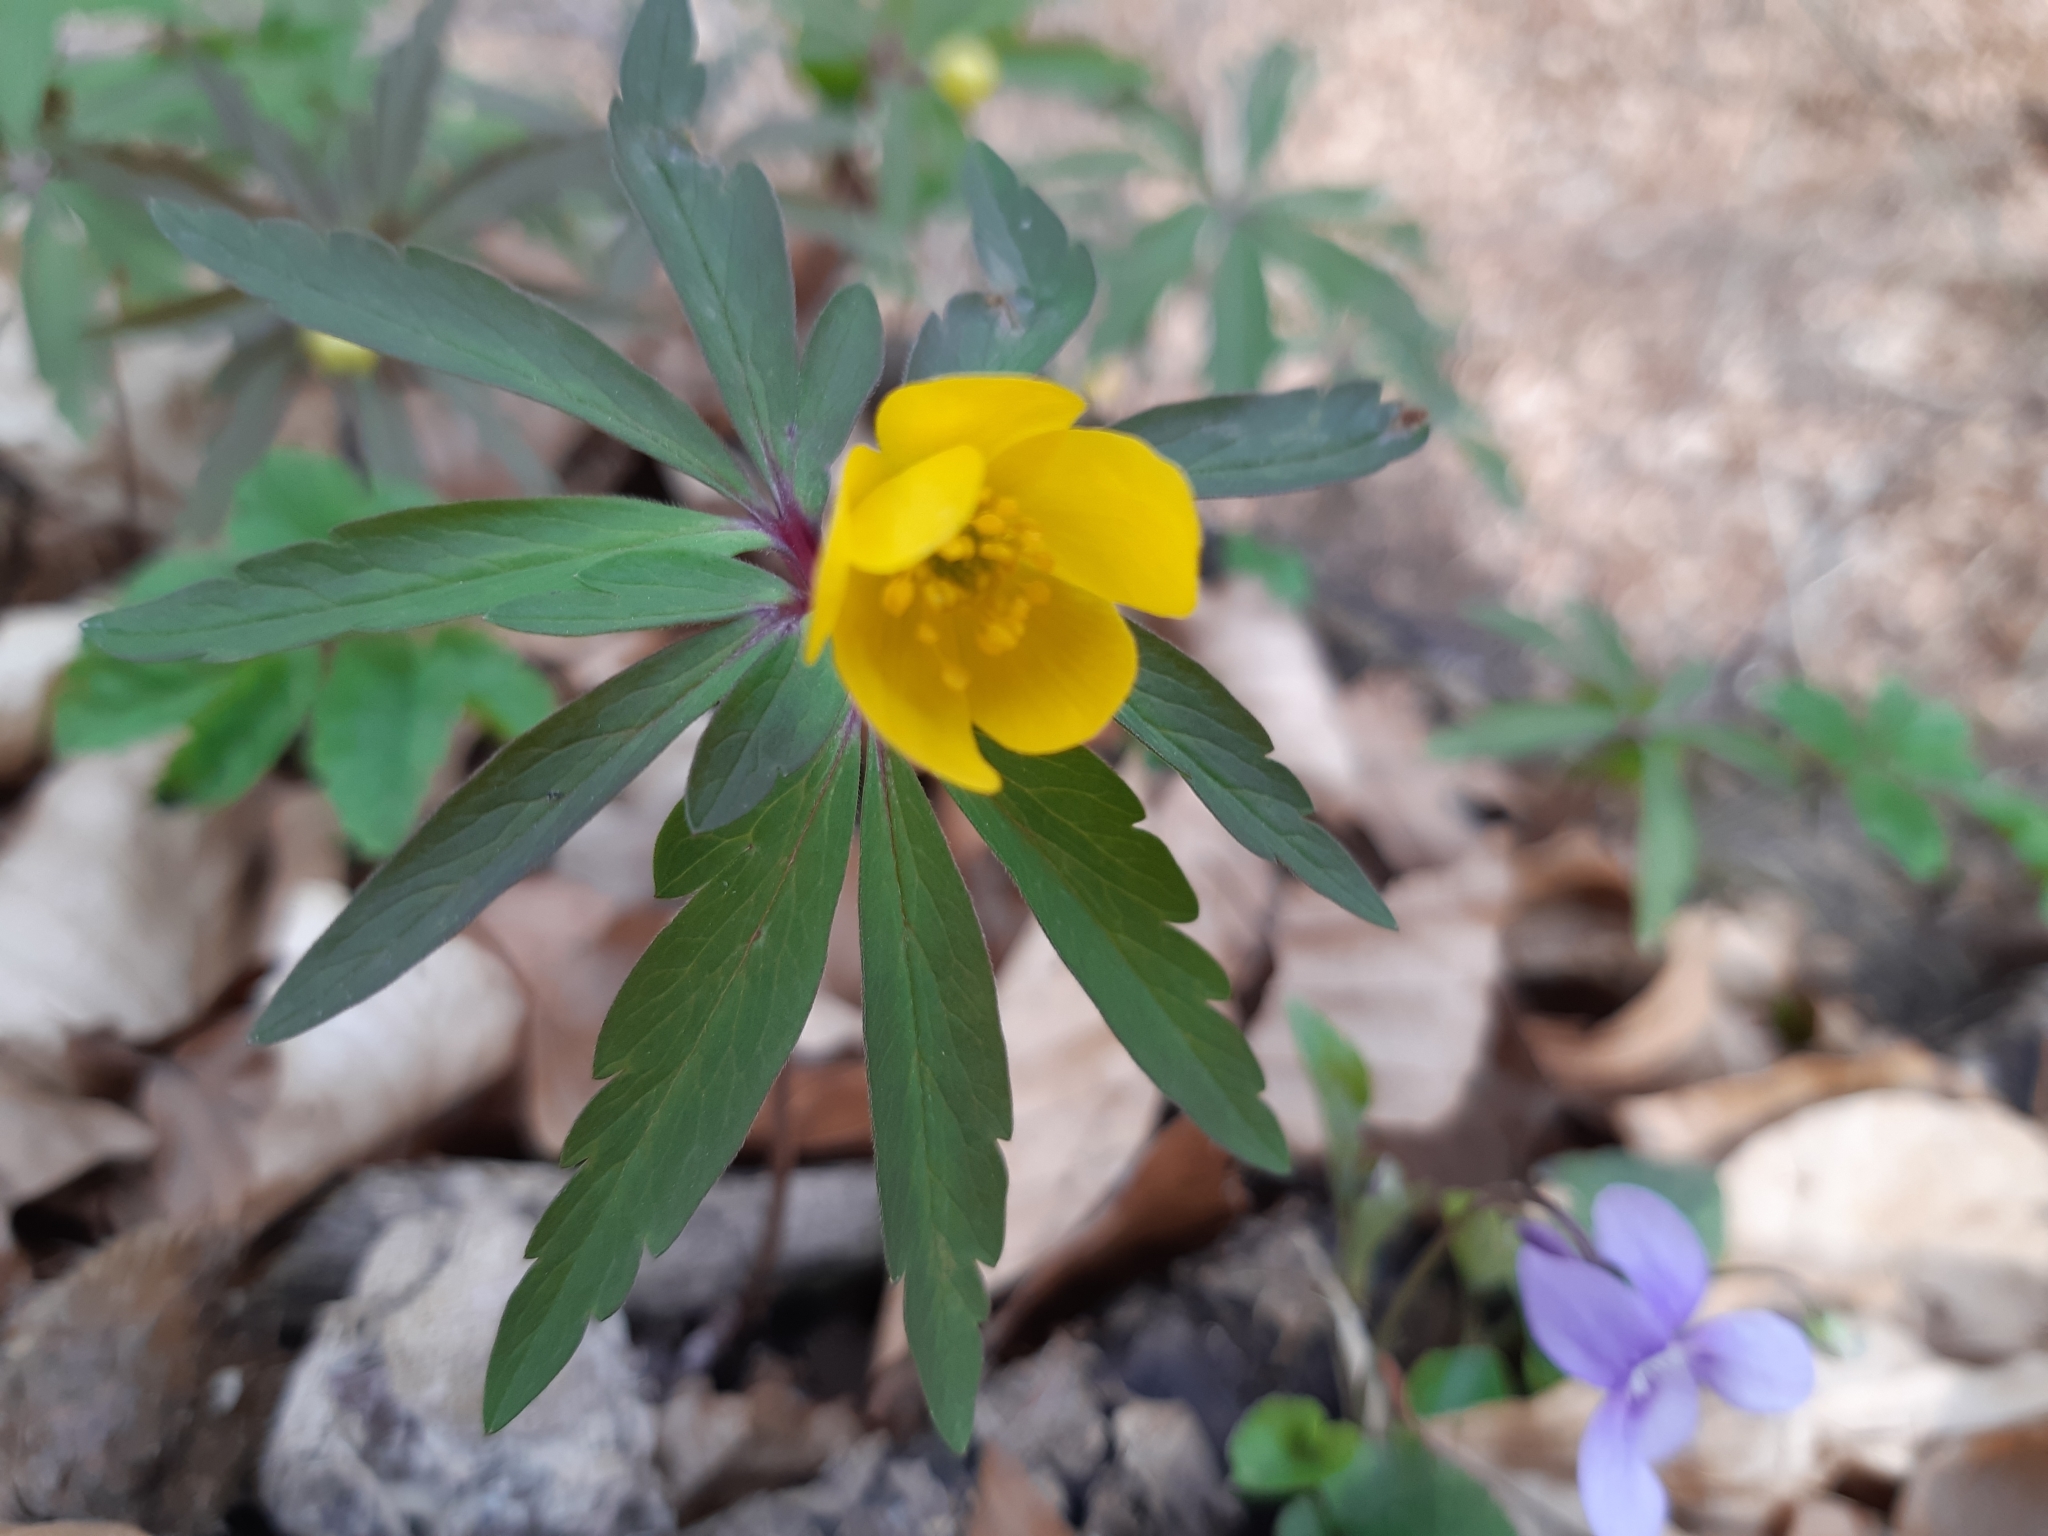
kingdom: Plantae
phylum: Tracheophyta
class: Magnoliopsida
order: Ranunculales
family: Ranunculaceae
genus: Anemone
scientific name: Anemone ranunculoides
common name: Yellow anemone
